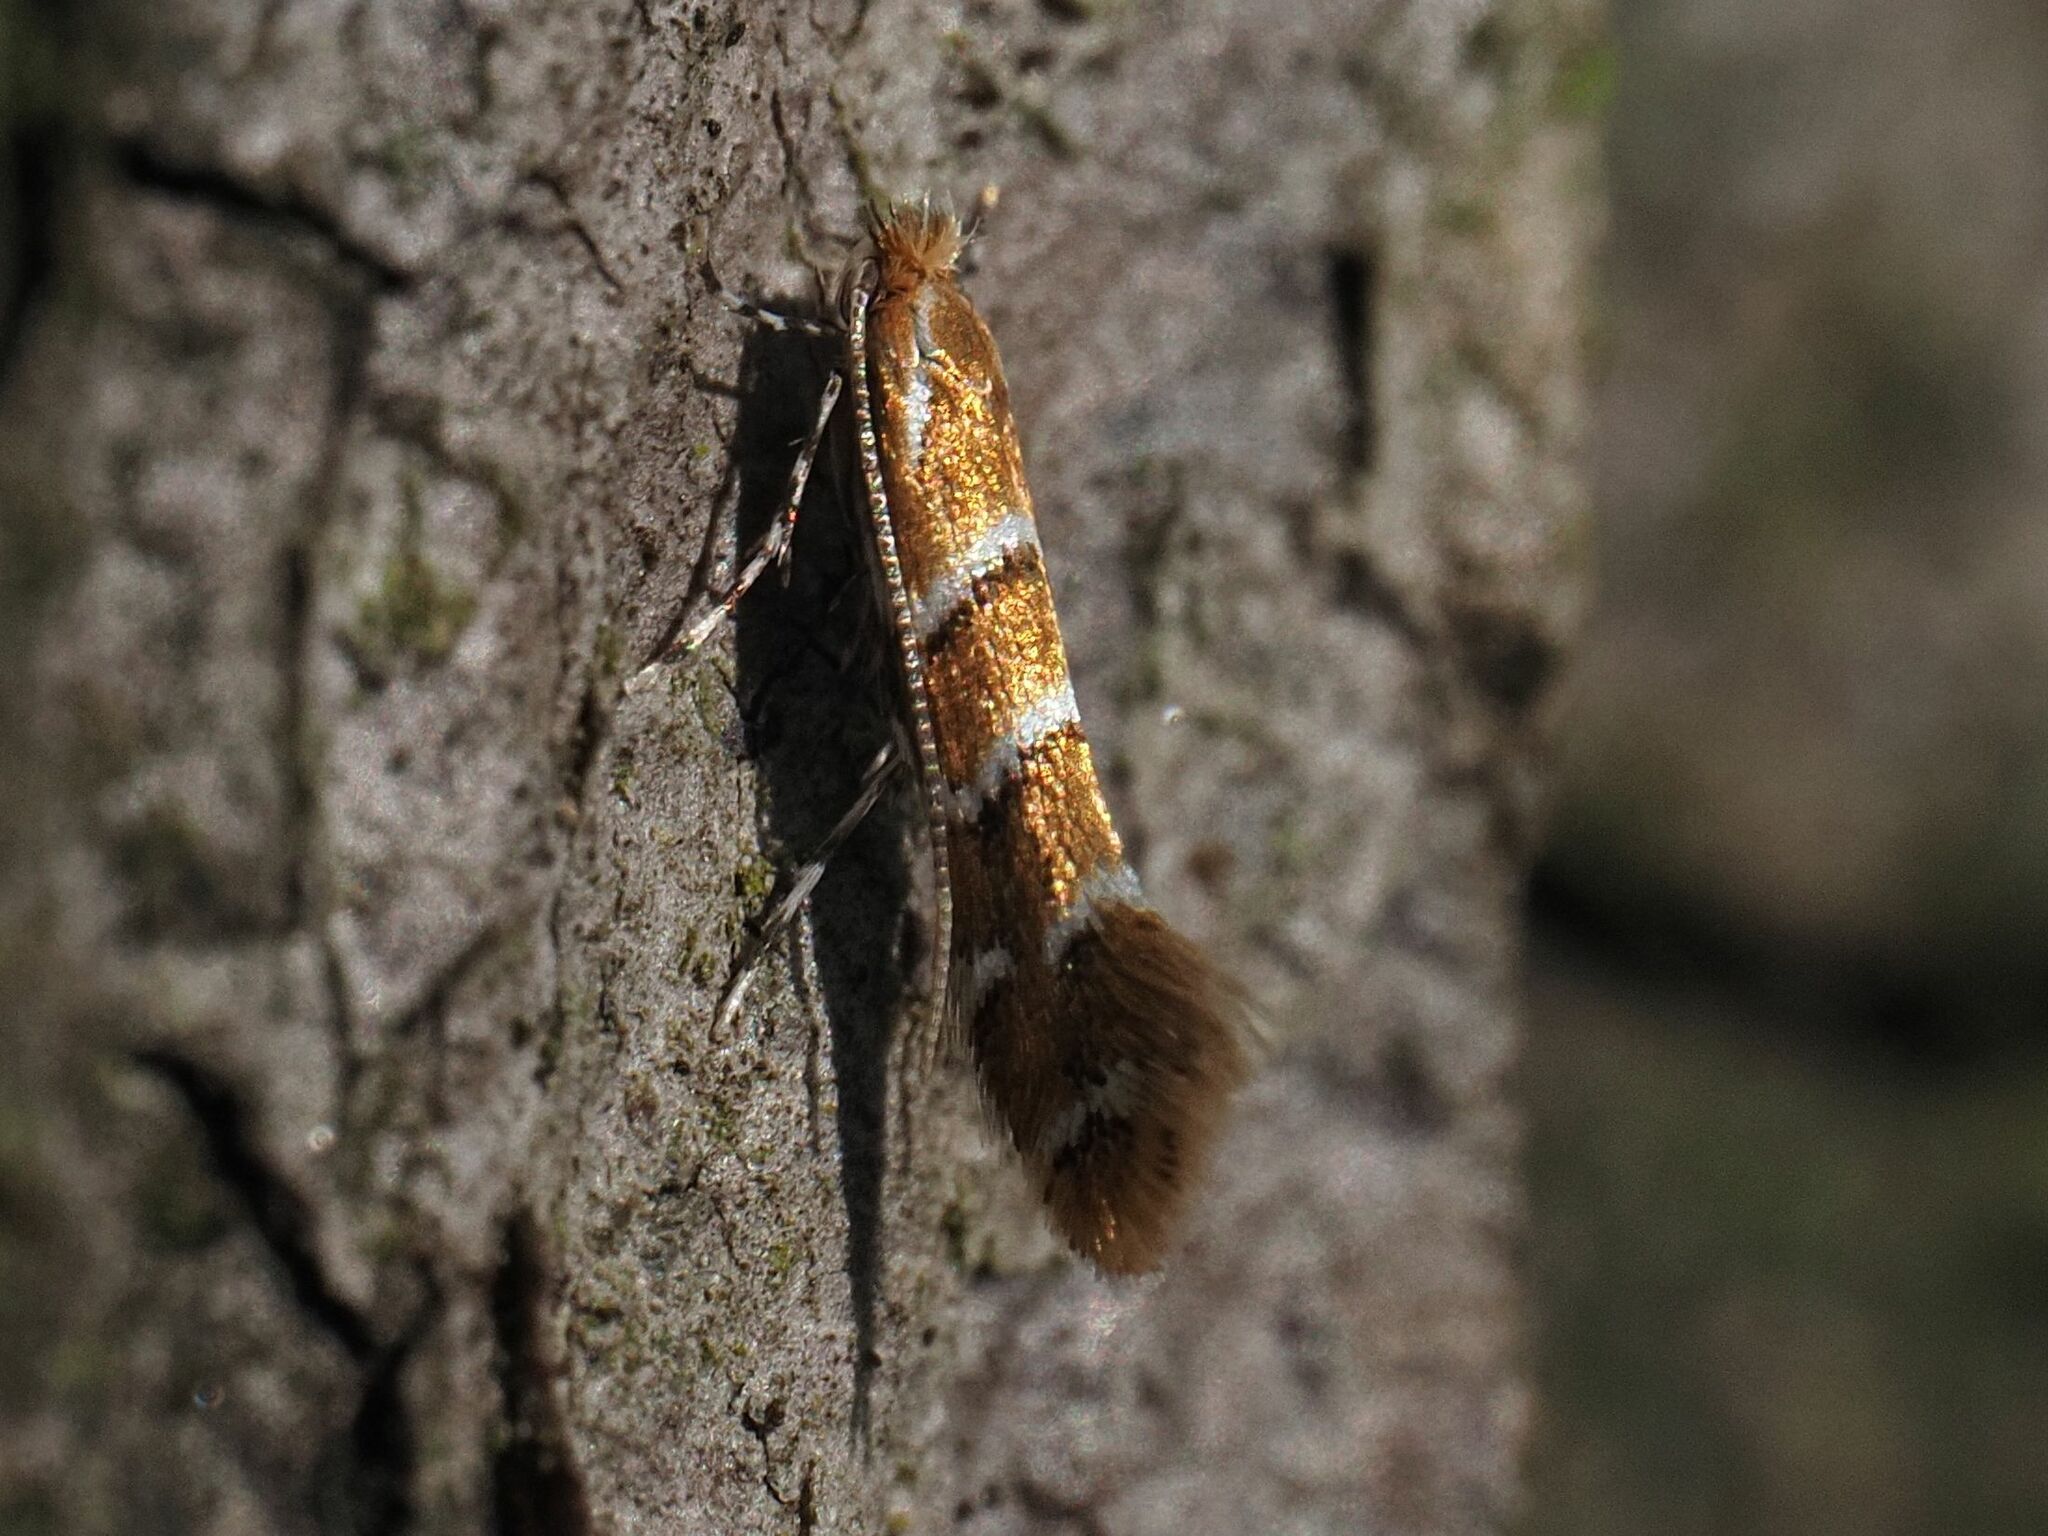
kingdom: Animalia
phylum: Arthropoda
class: Insecta
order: Lepidoptera
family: Gracillariidae
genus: Cameraria
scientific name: Cameraria ohridella
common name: Horse-chestnut leaf-miner
